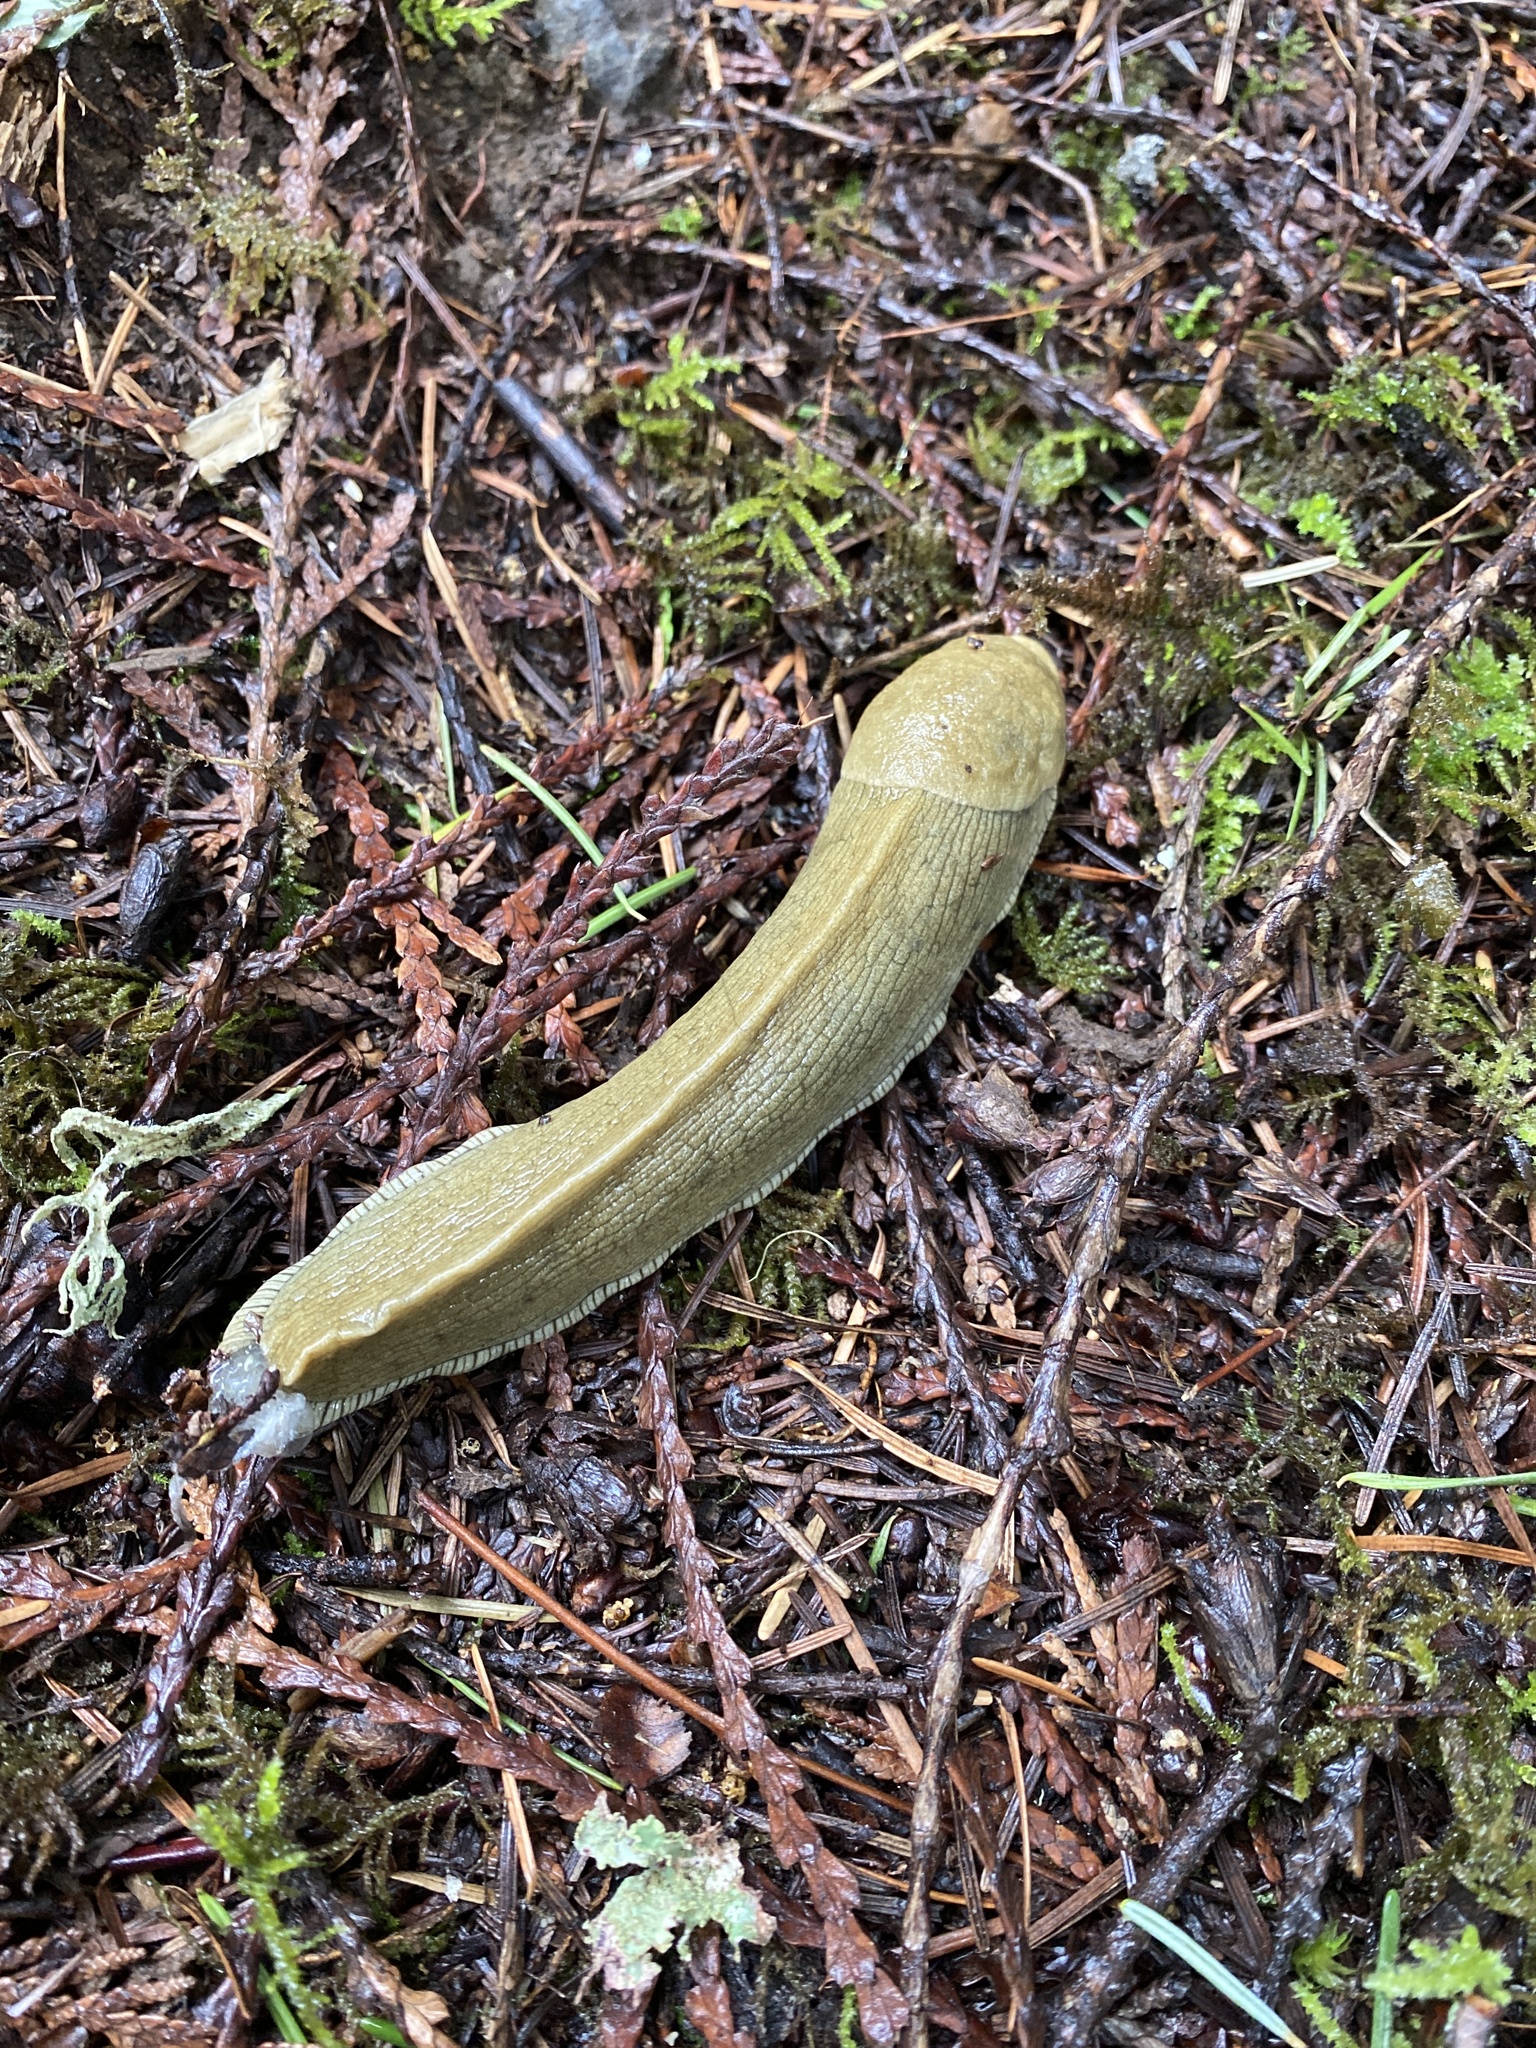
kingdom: Animalia
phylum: Mollusca
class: Gastropoda
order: Stylommatophora
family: Ariolimacidae
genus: Ariolimax
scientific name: Ariolimax columbianus
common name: Pacific banana slug
